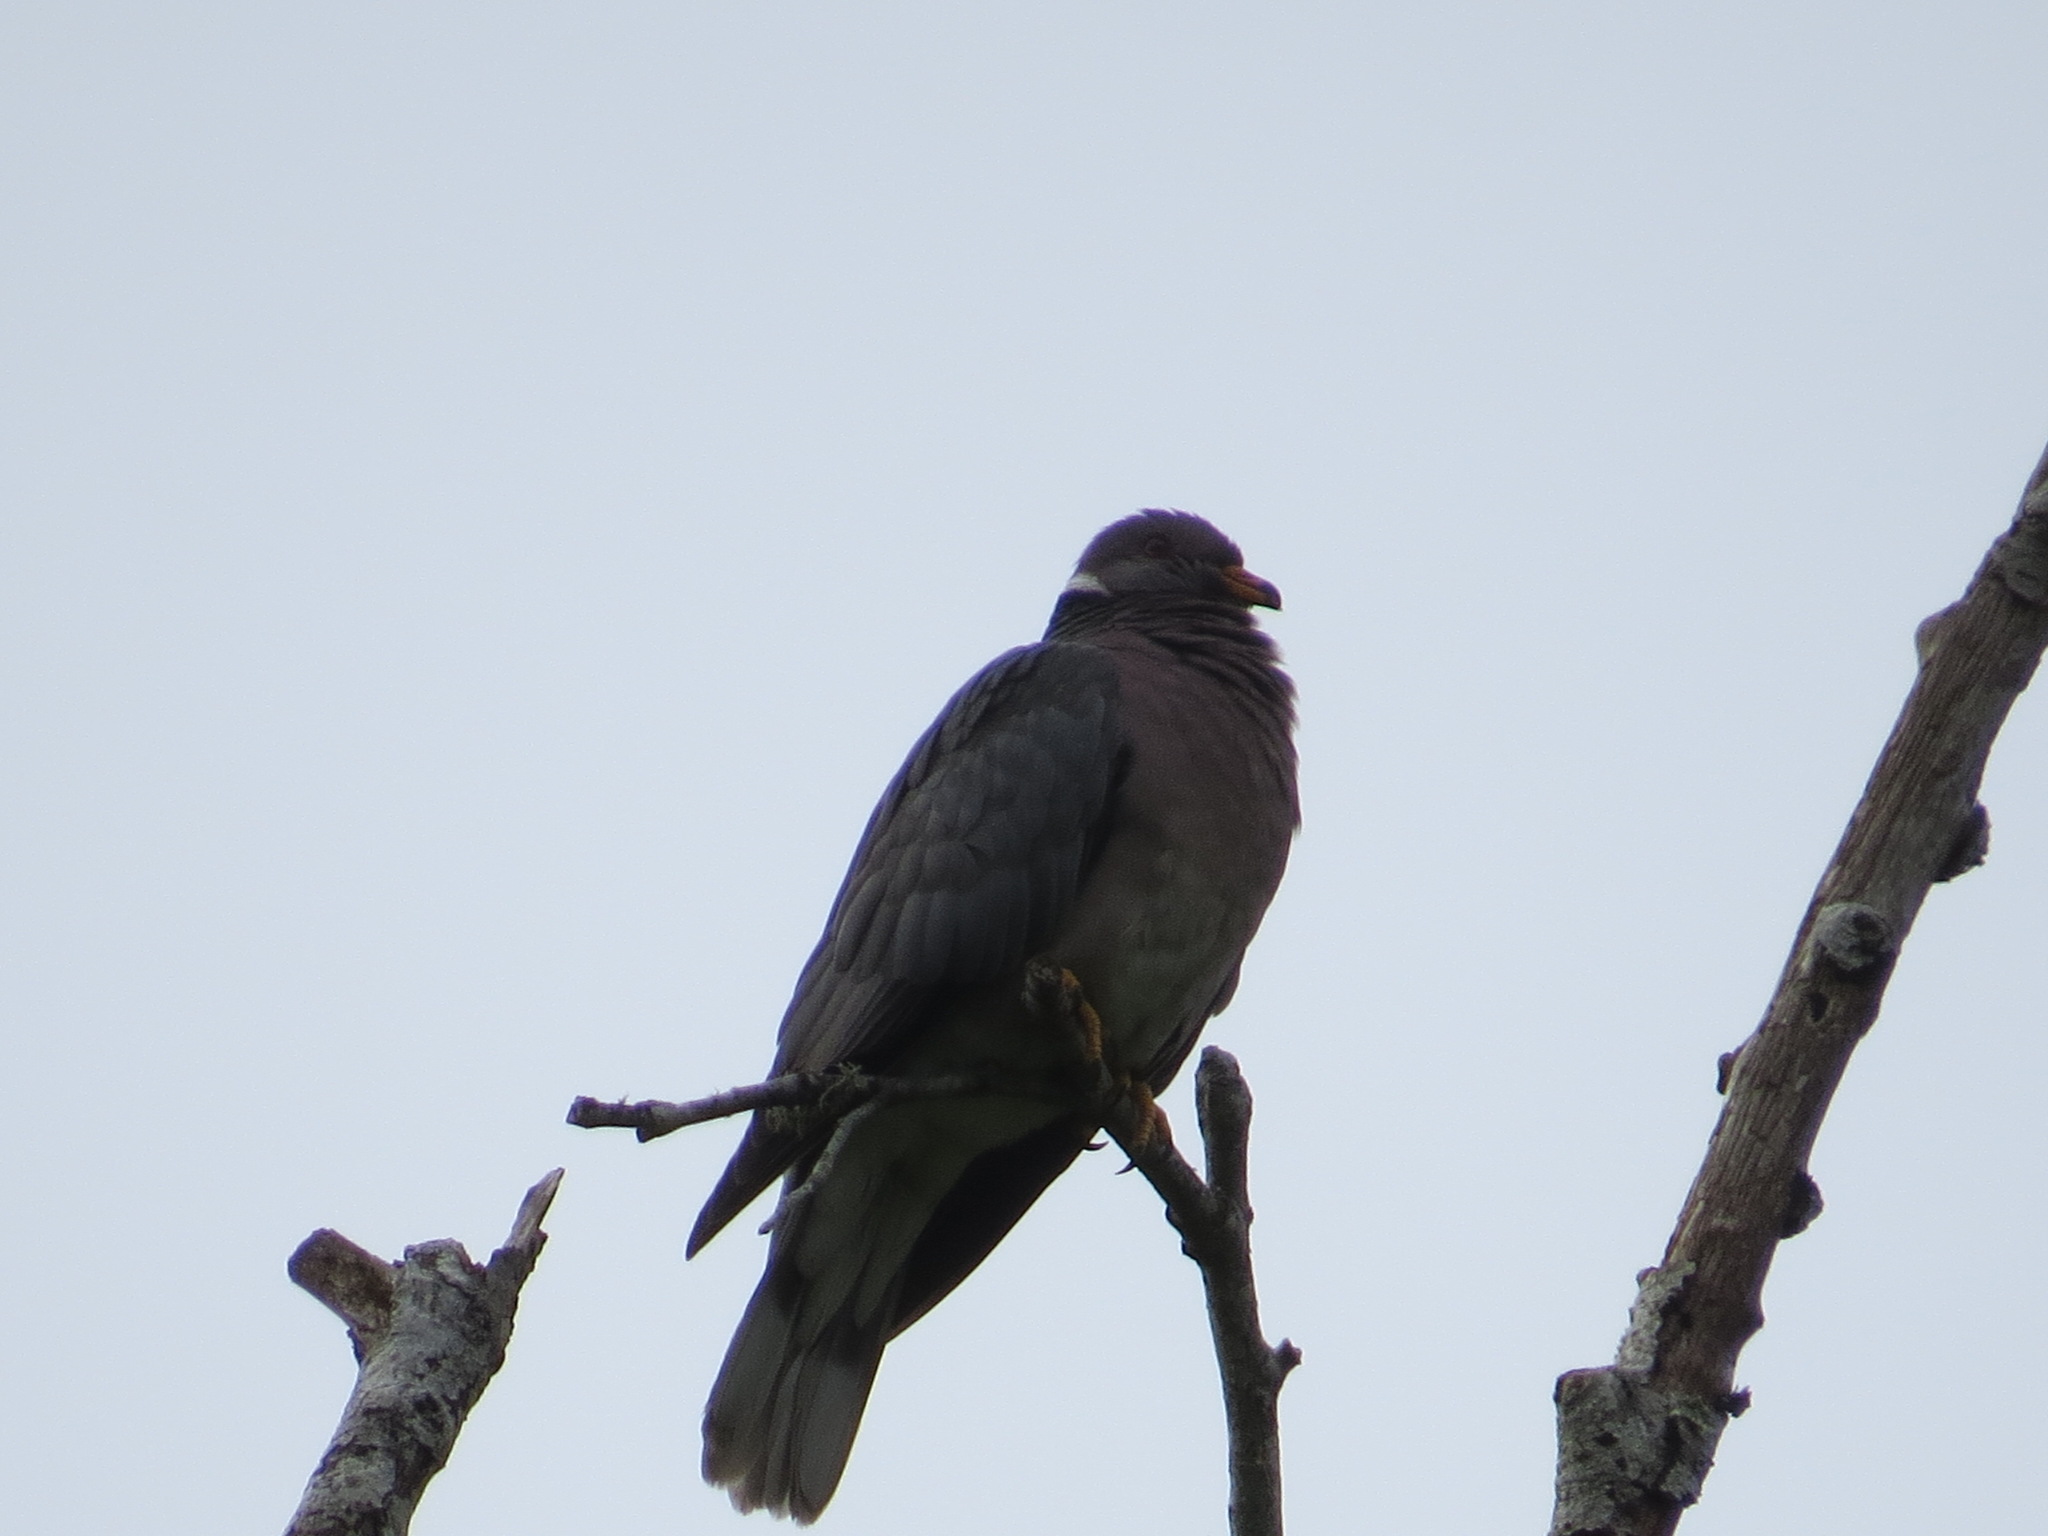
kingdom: Animalia
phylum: Chordata
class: Aves
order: Columbiformes
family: Columbidae
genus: Patagioenas
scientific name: Patagioenas fasciata
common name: Band-tailed pigeon
